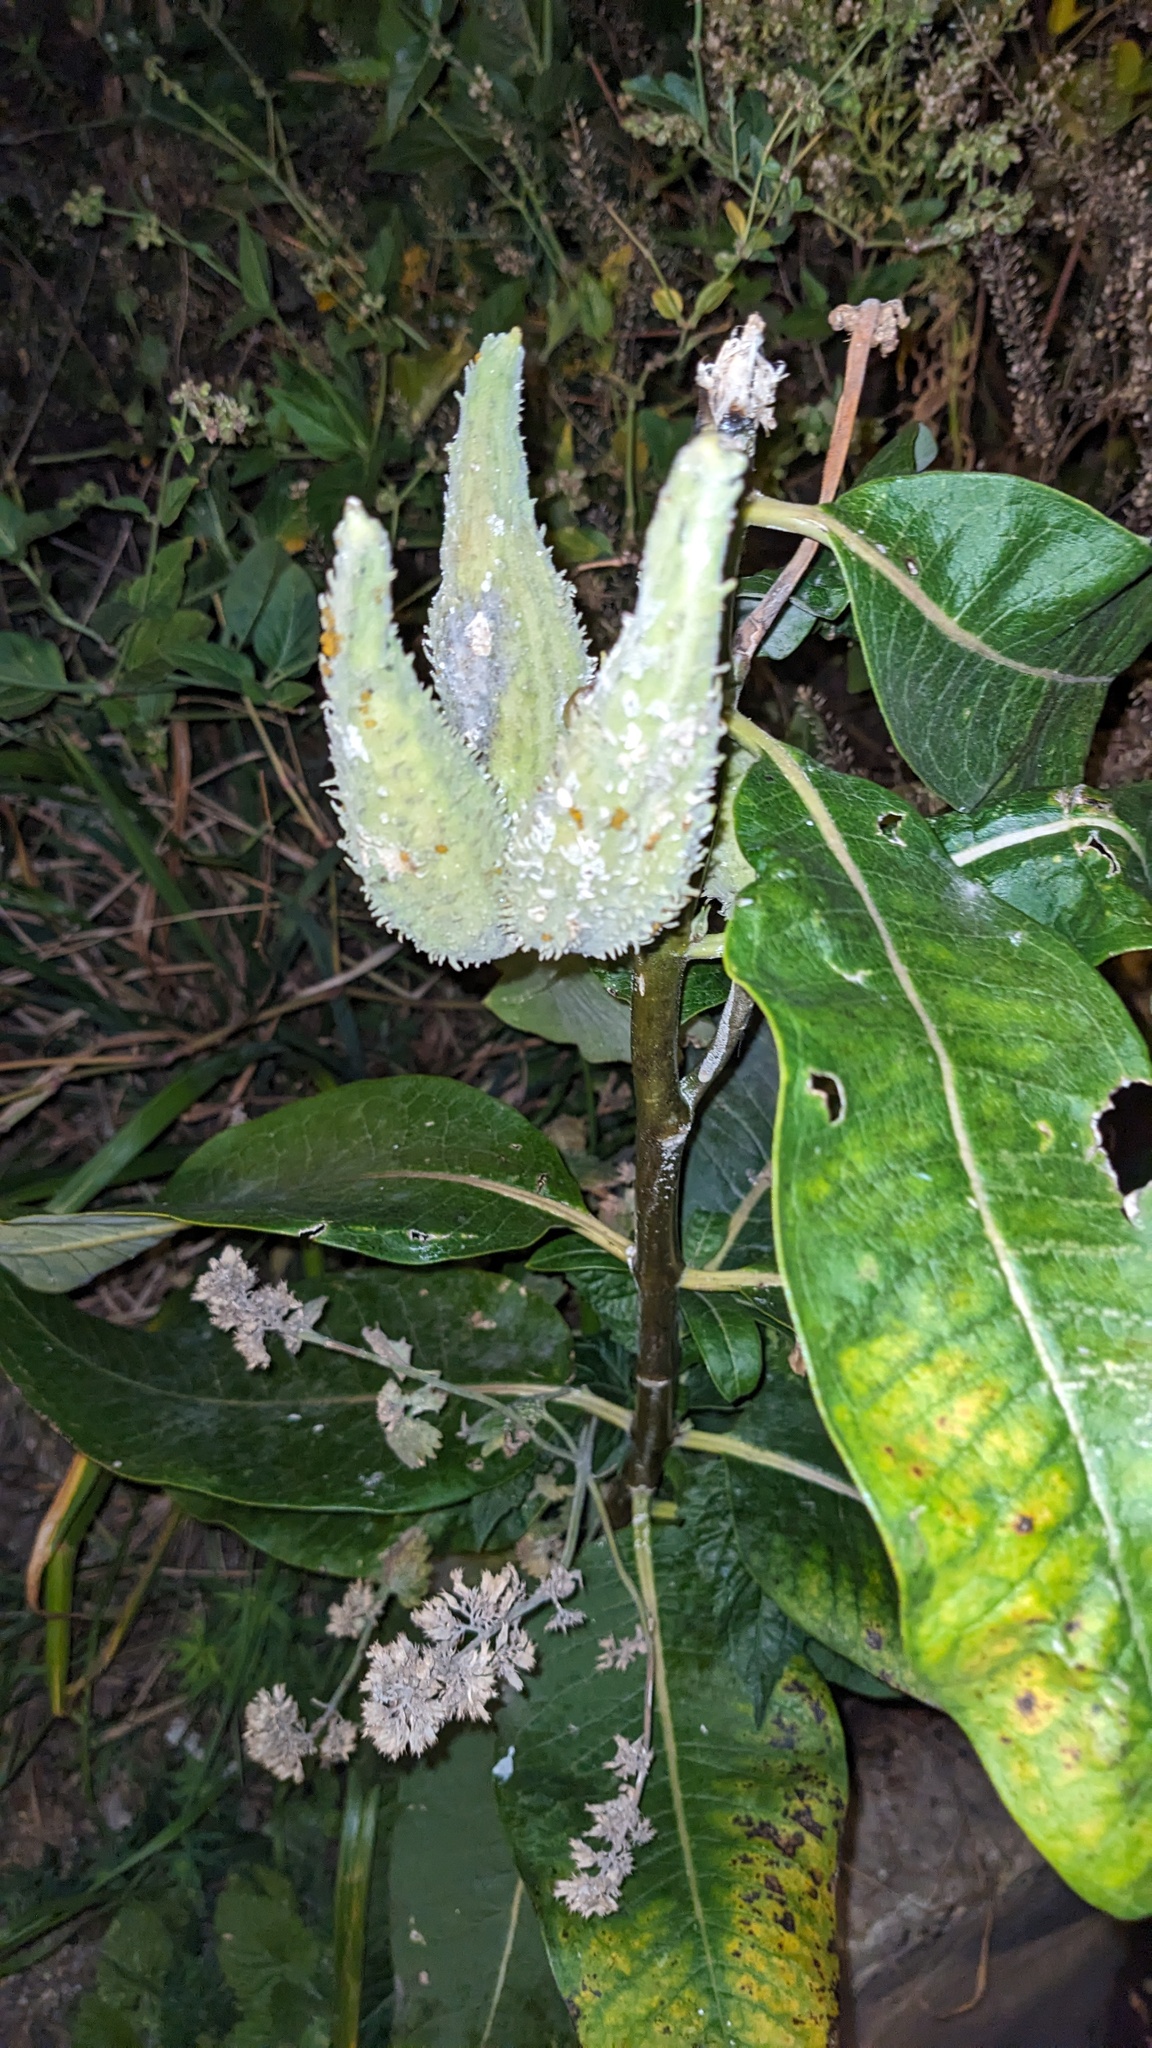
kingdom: Plantae
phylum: Tracheophyta
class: Magnoliopsida
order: Gentianales
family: Apocynaceae
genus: Asclepias
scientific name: Asclepias syriaca
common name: Common milkweed
